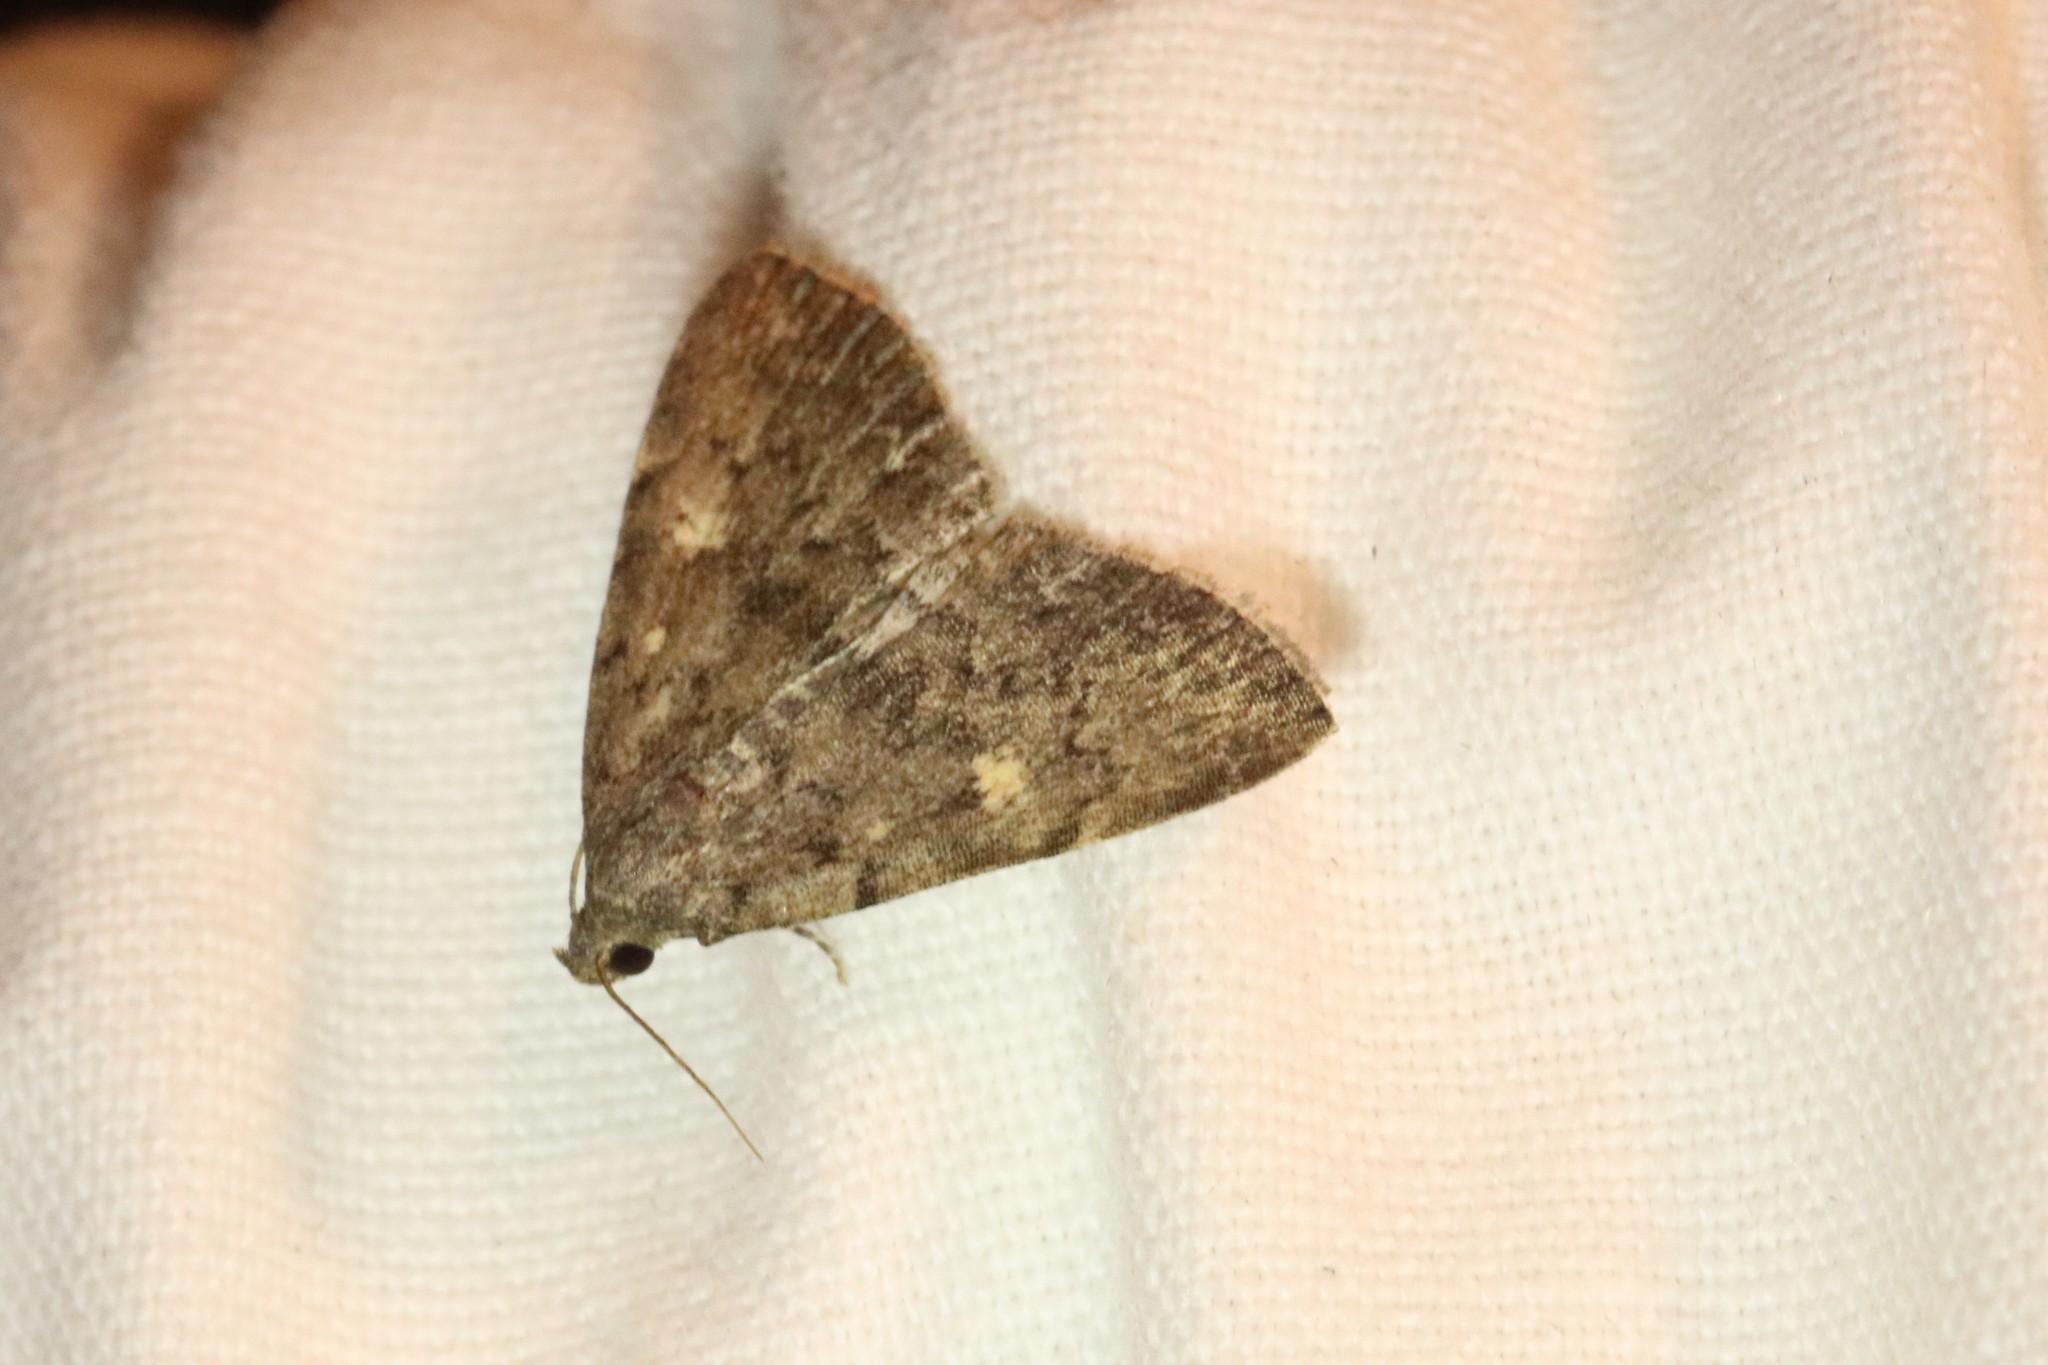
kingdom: Animalia
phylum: Arthropoda
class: Insecta
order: Lepidoptera
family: Erebidae
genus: Idia
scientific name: Idia aemula
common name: Common idia moth
